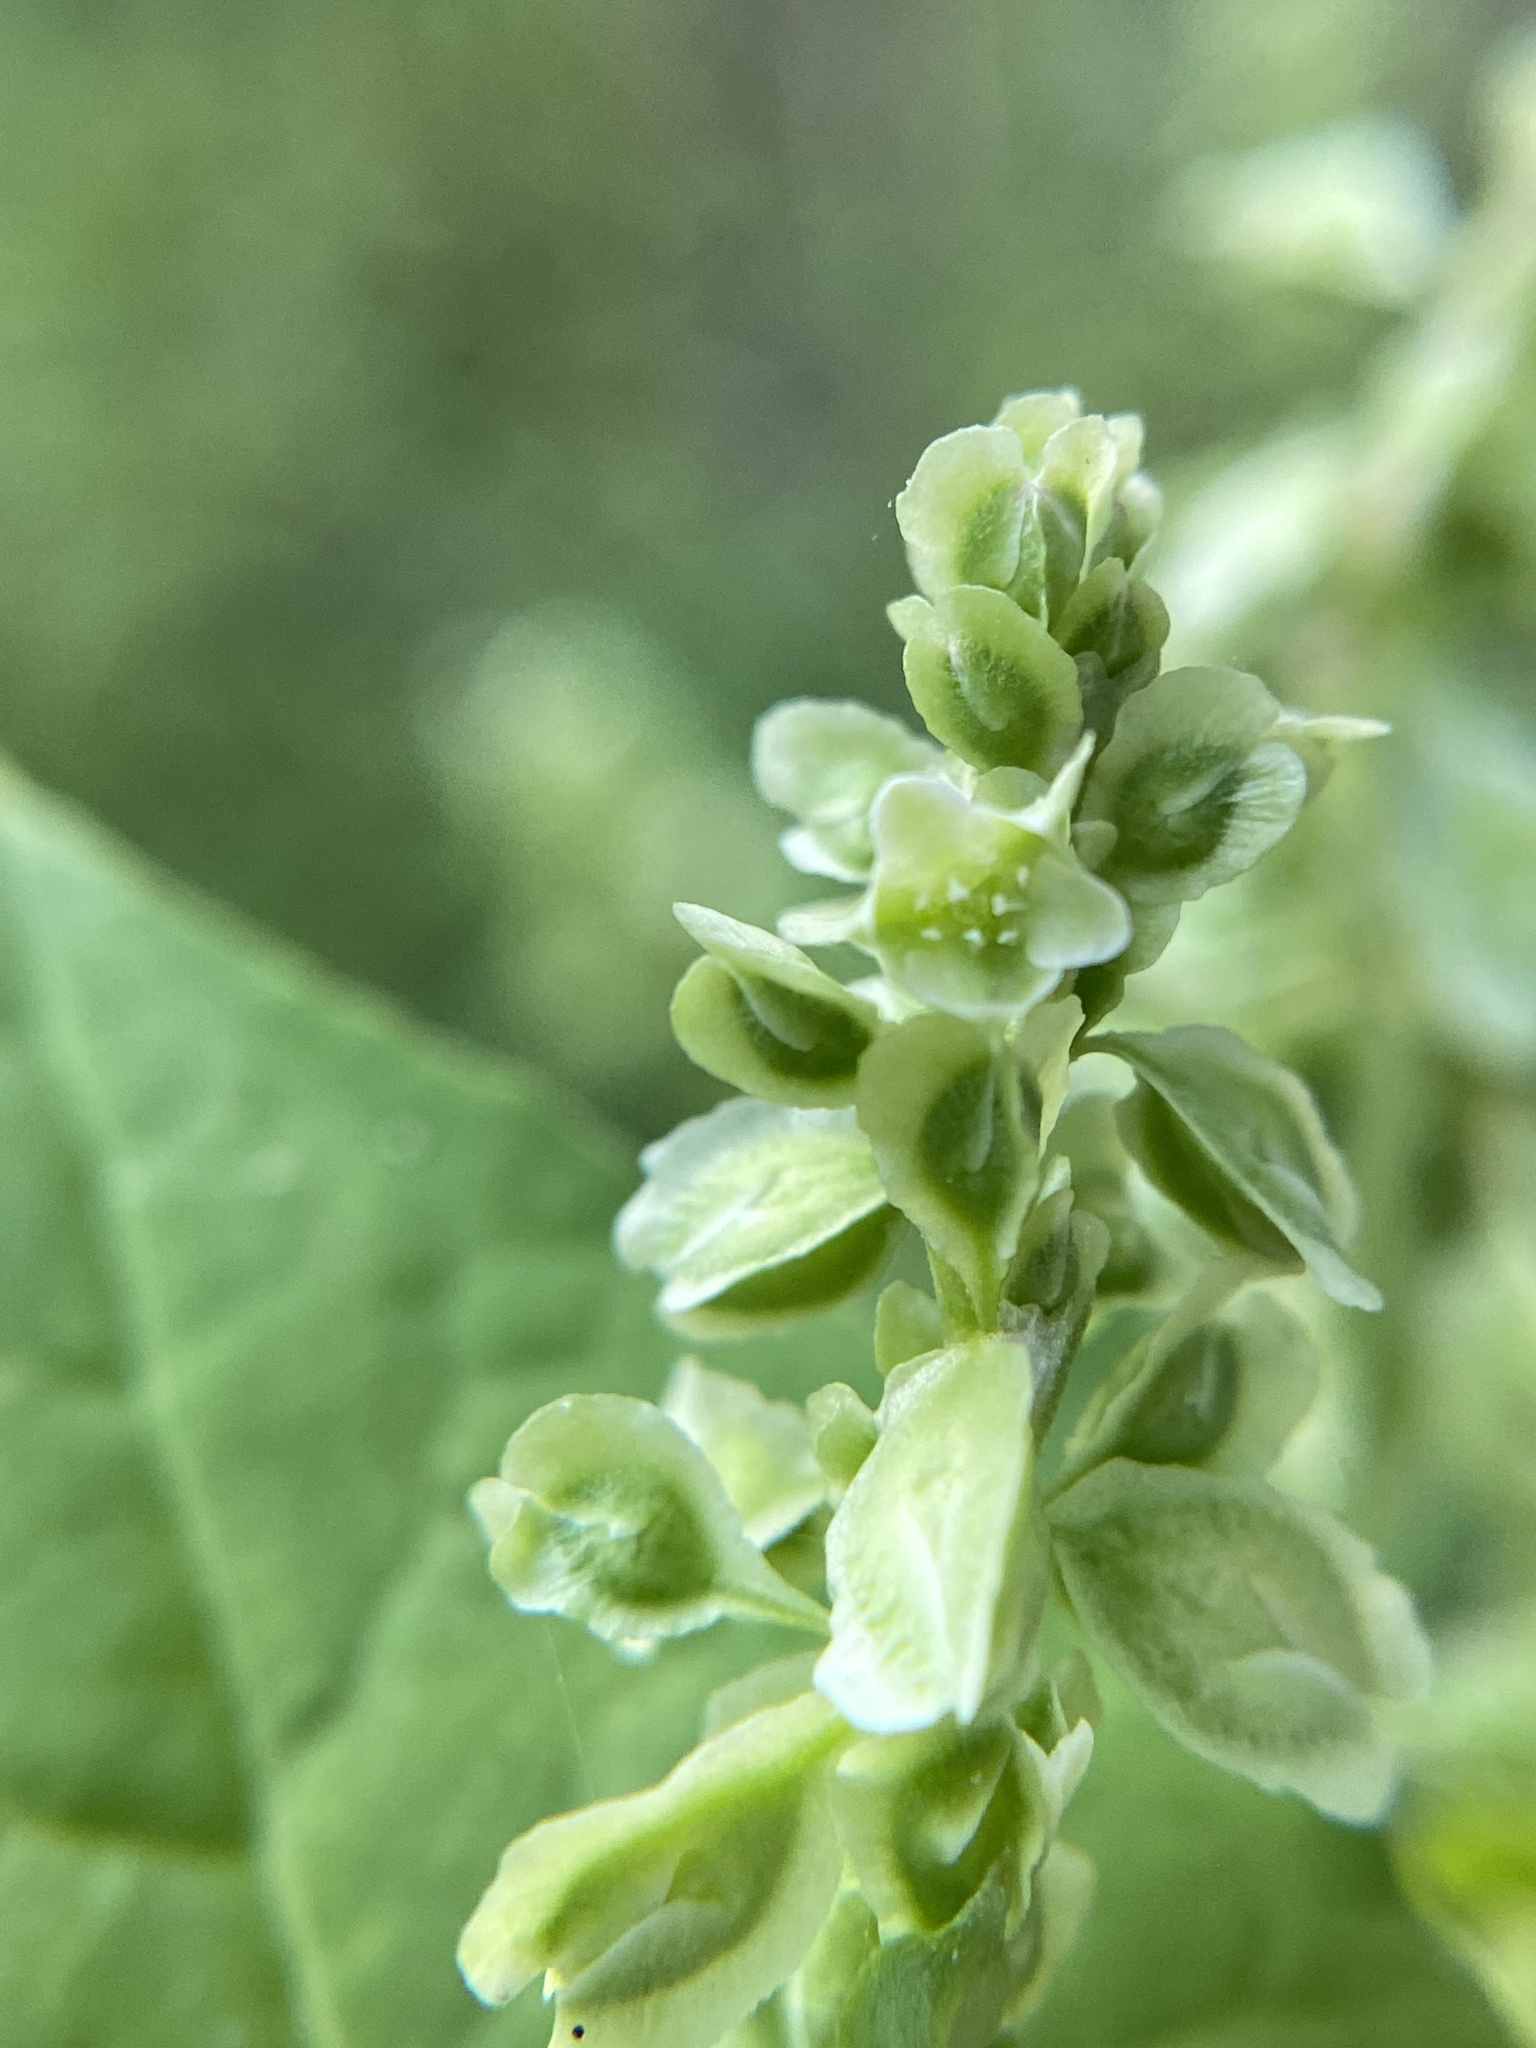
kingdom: Plantae
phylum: Tracheophyta
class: Magnoliopsida
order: Caryophyllales
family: Polygonaceae
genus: Fallopia
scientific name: Fallopia scandens
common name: Climbing false buckwheat
